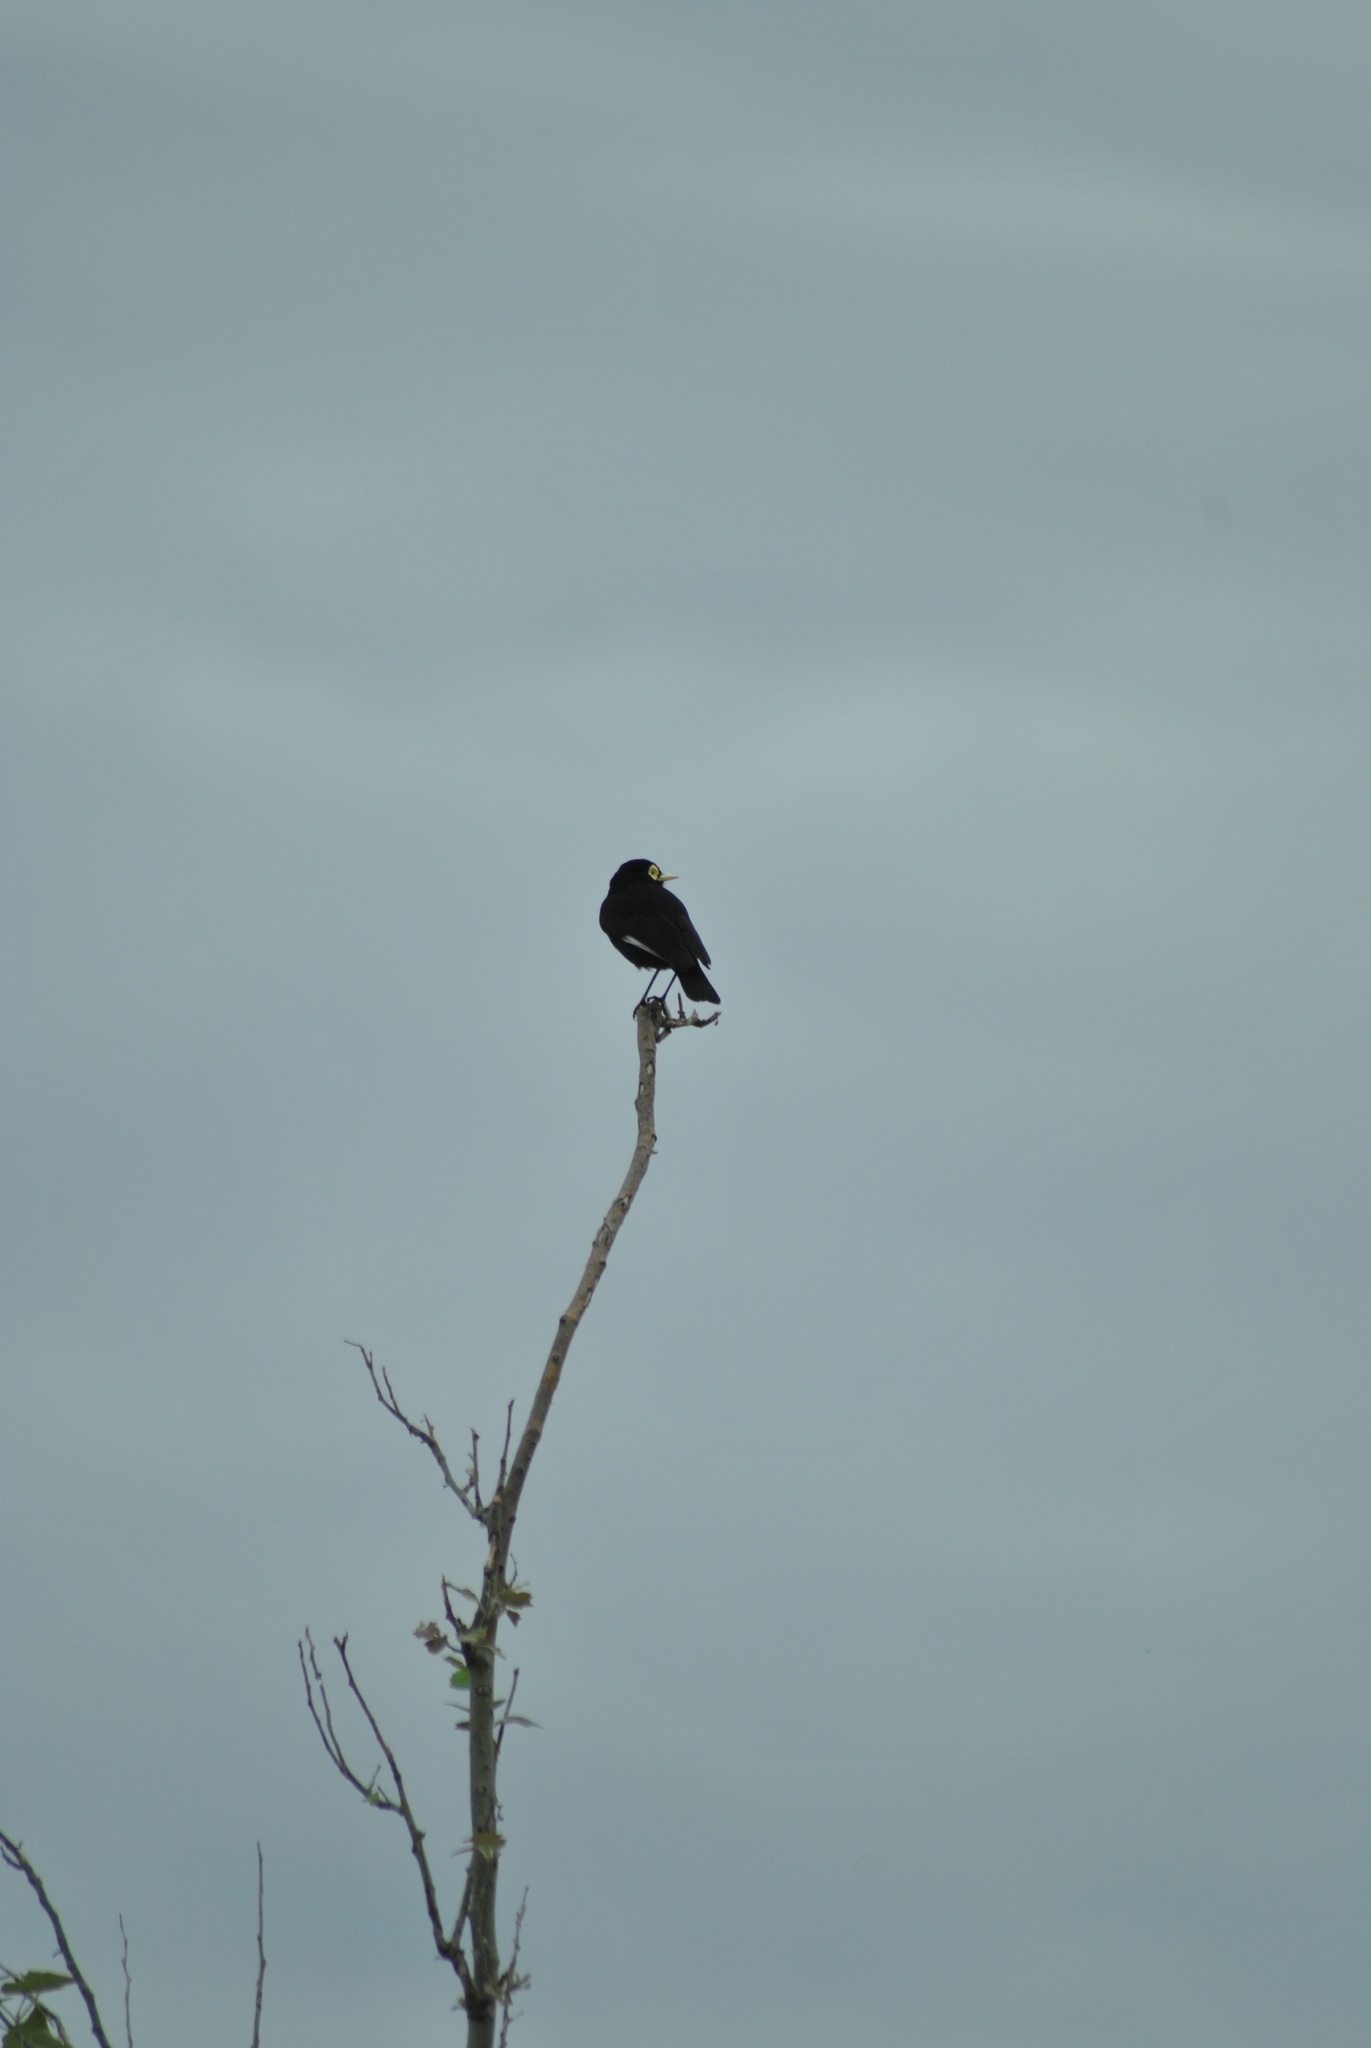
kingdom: Animalia
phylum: Chordata
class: Aves
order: Passeriformes
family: Tyrannidae
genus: Hymenops
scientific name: Hymenops perspicillatus
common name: Spectacled tyrant
